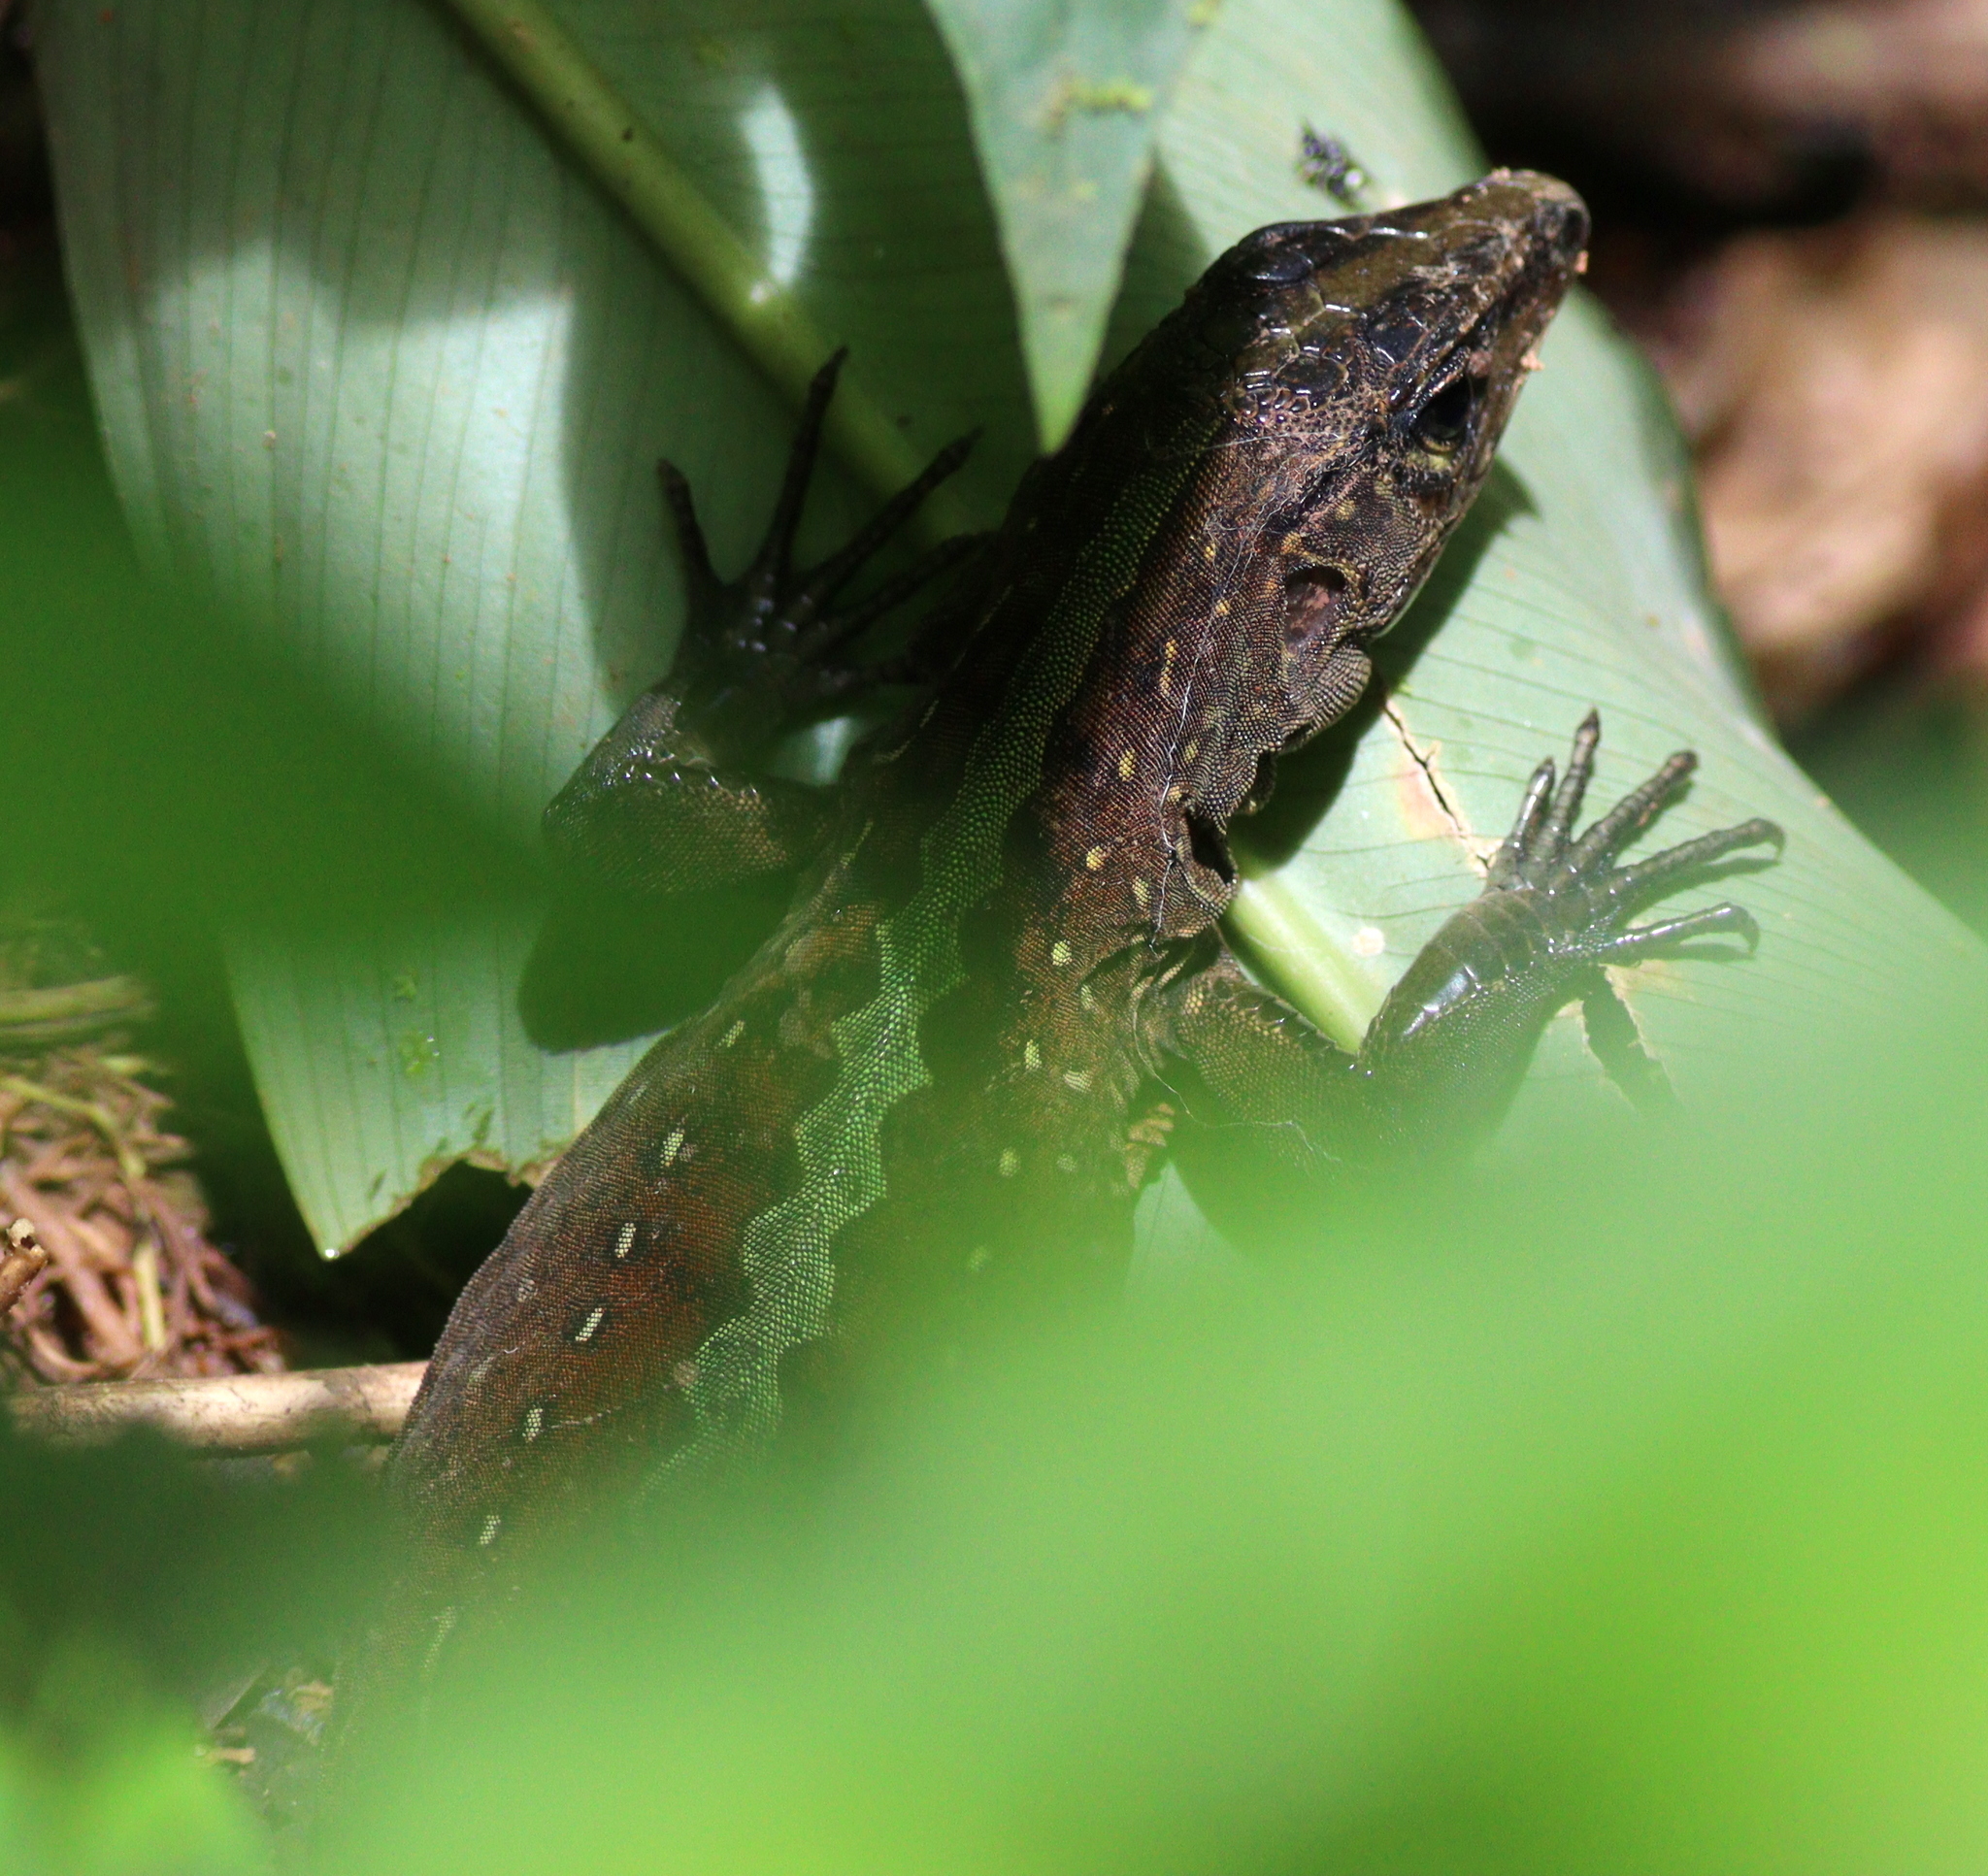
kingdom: Animalia
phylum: Chordata
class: Squamata
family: Teiidae
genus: Holcosus
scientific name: Holcosus festivus
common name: Middle american ameiva
